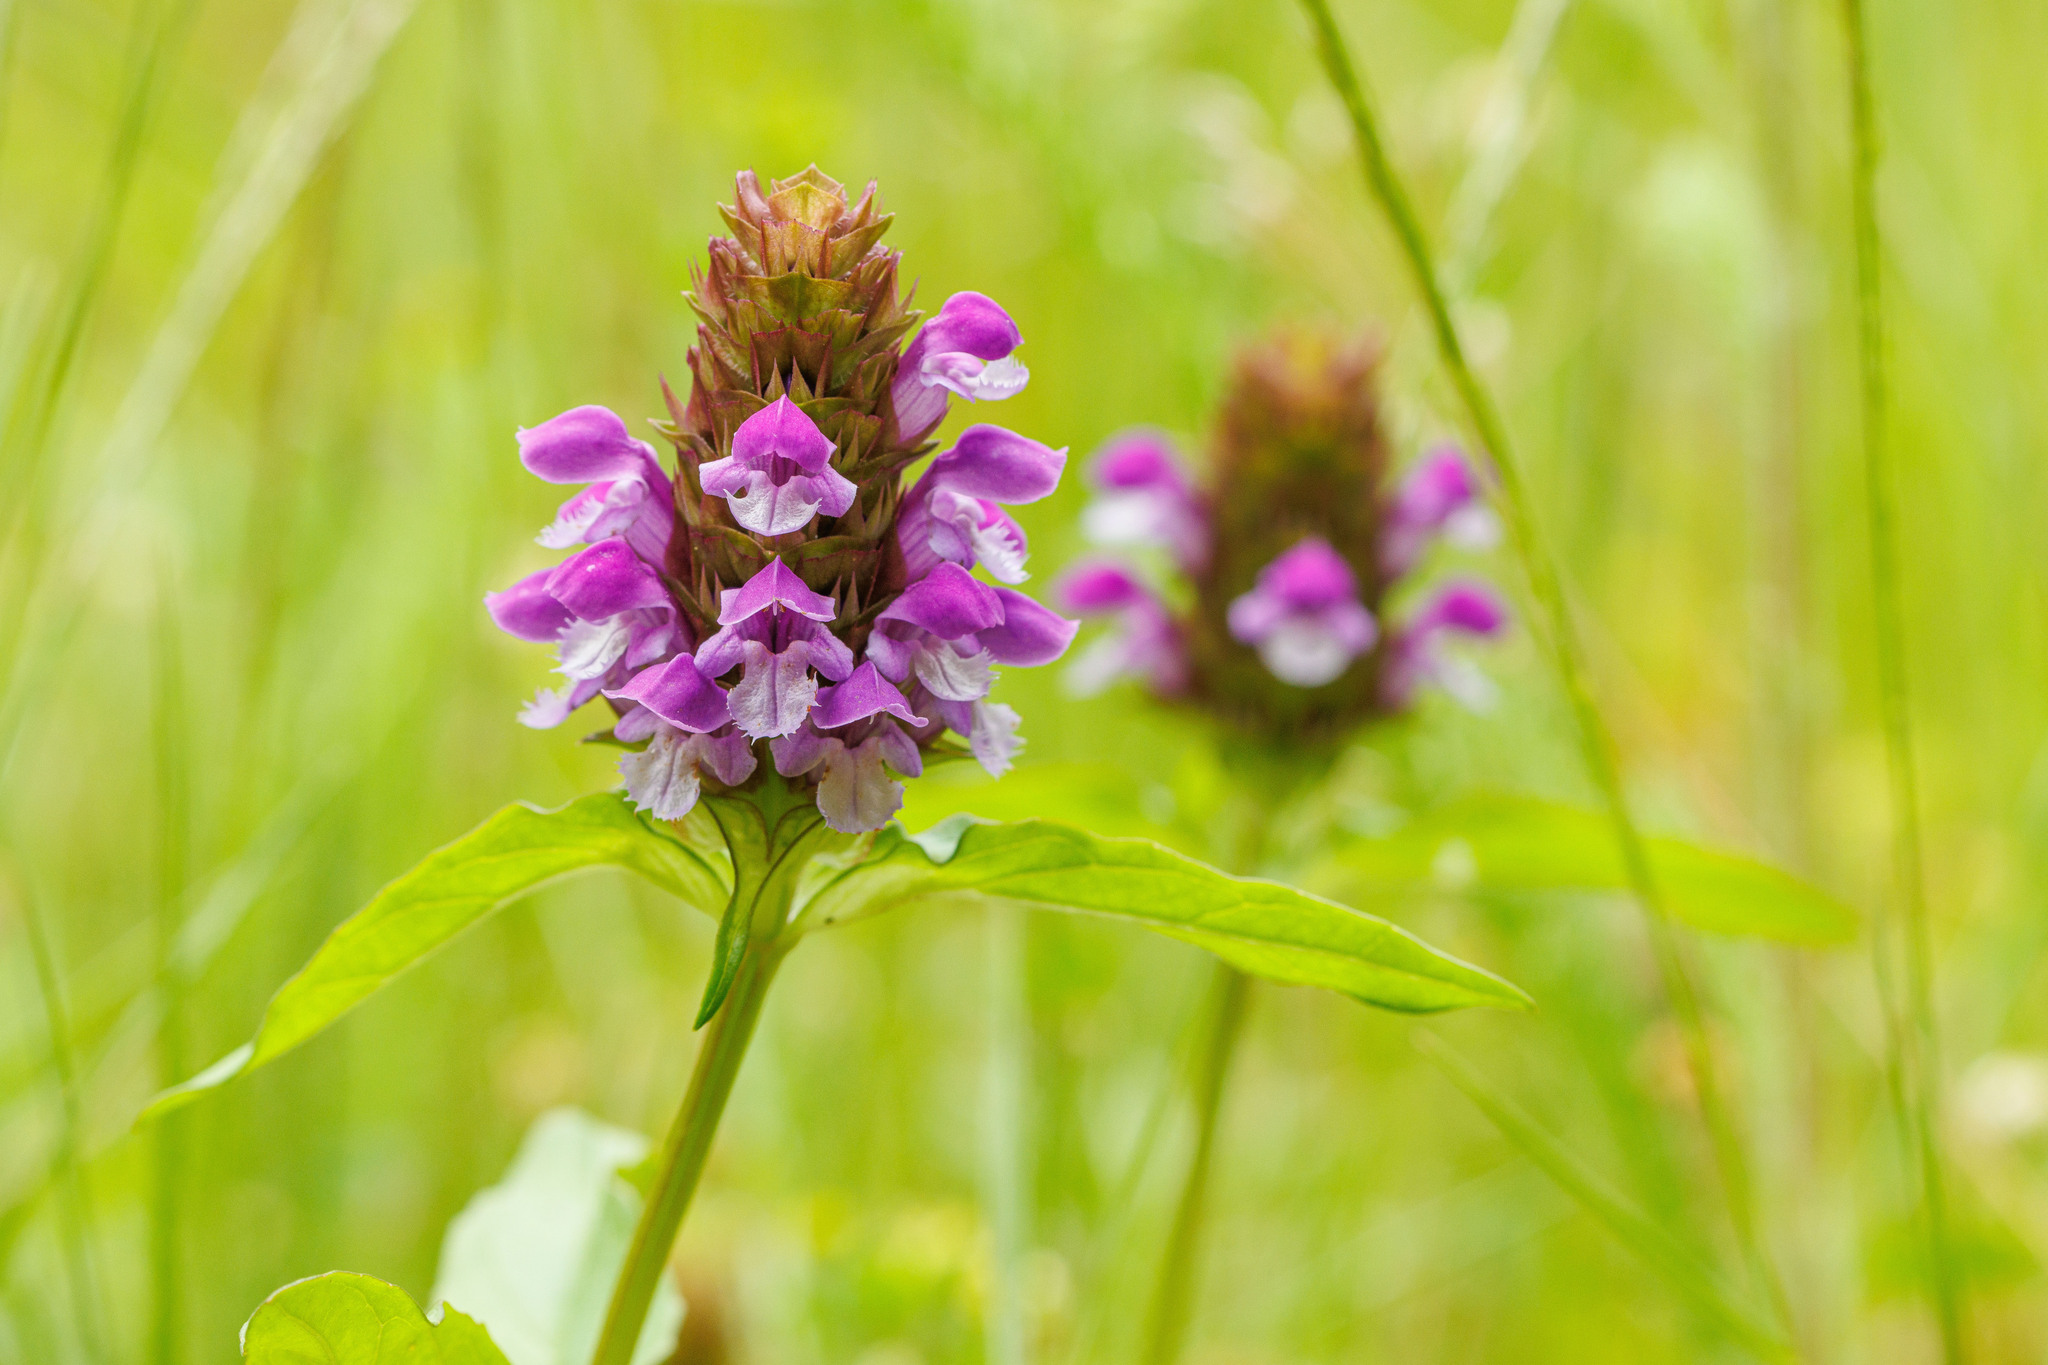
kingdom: Plantae
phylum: Tracheophyta
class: Magnoliopsida
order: Lamiales
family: Lamiaceae
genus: Prunella
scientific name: Prunella vulgaris
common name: Heal-all
